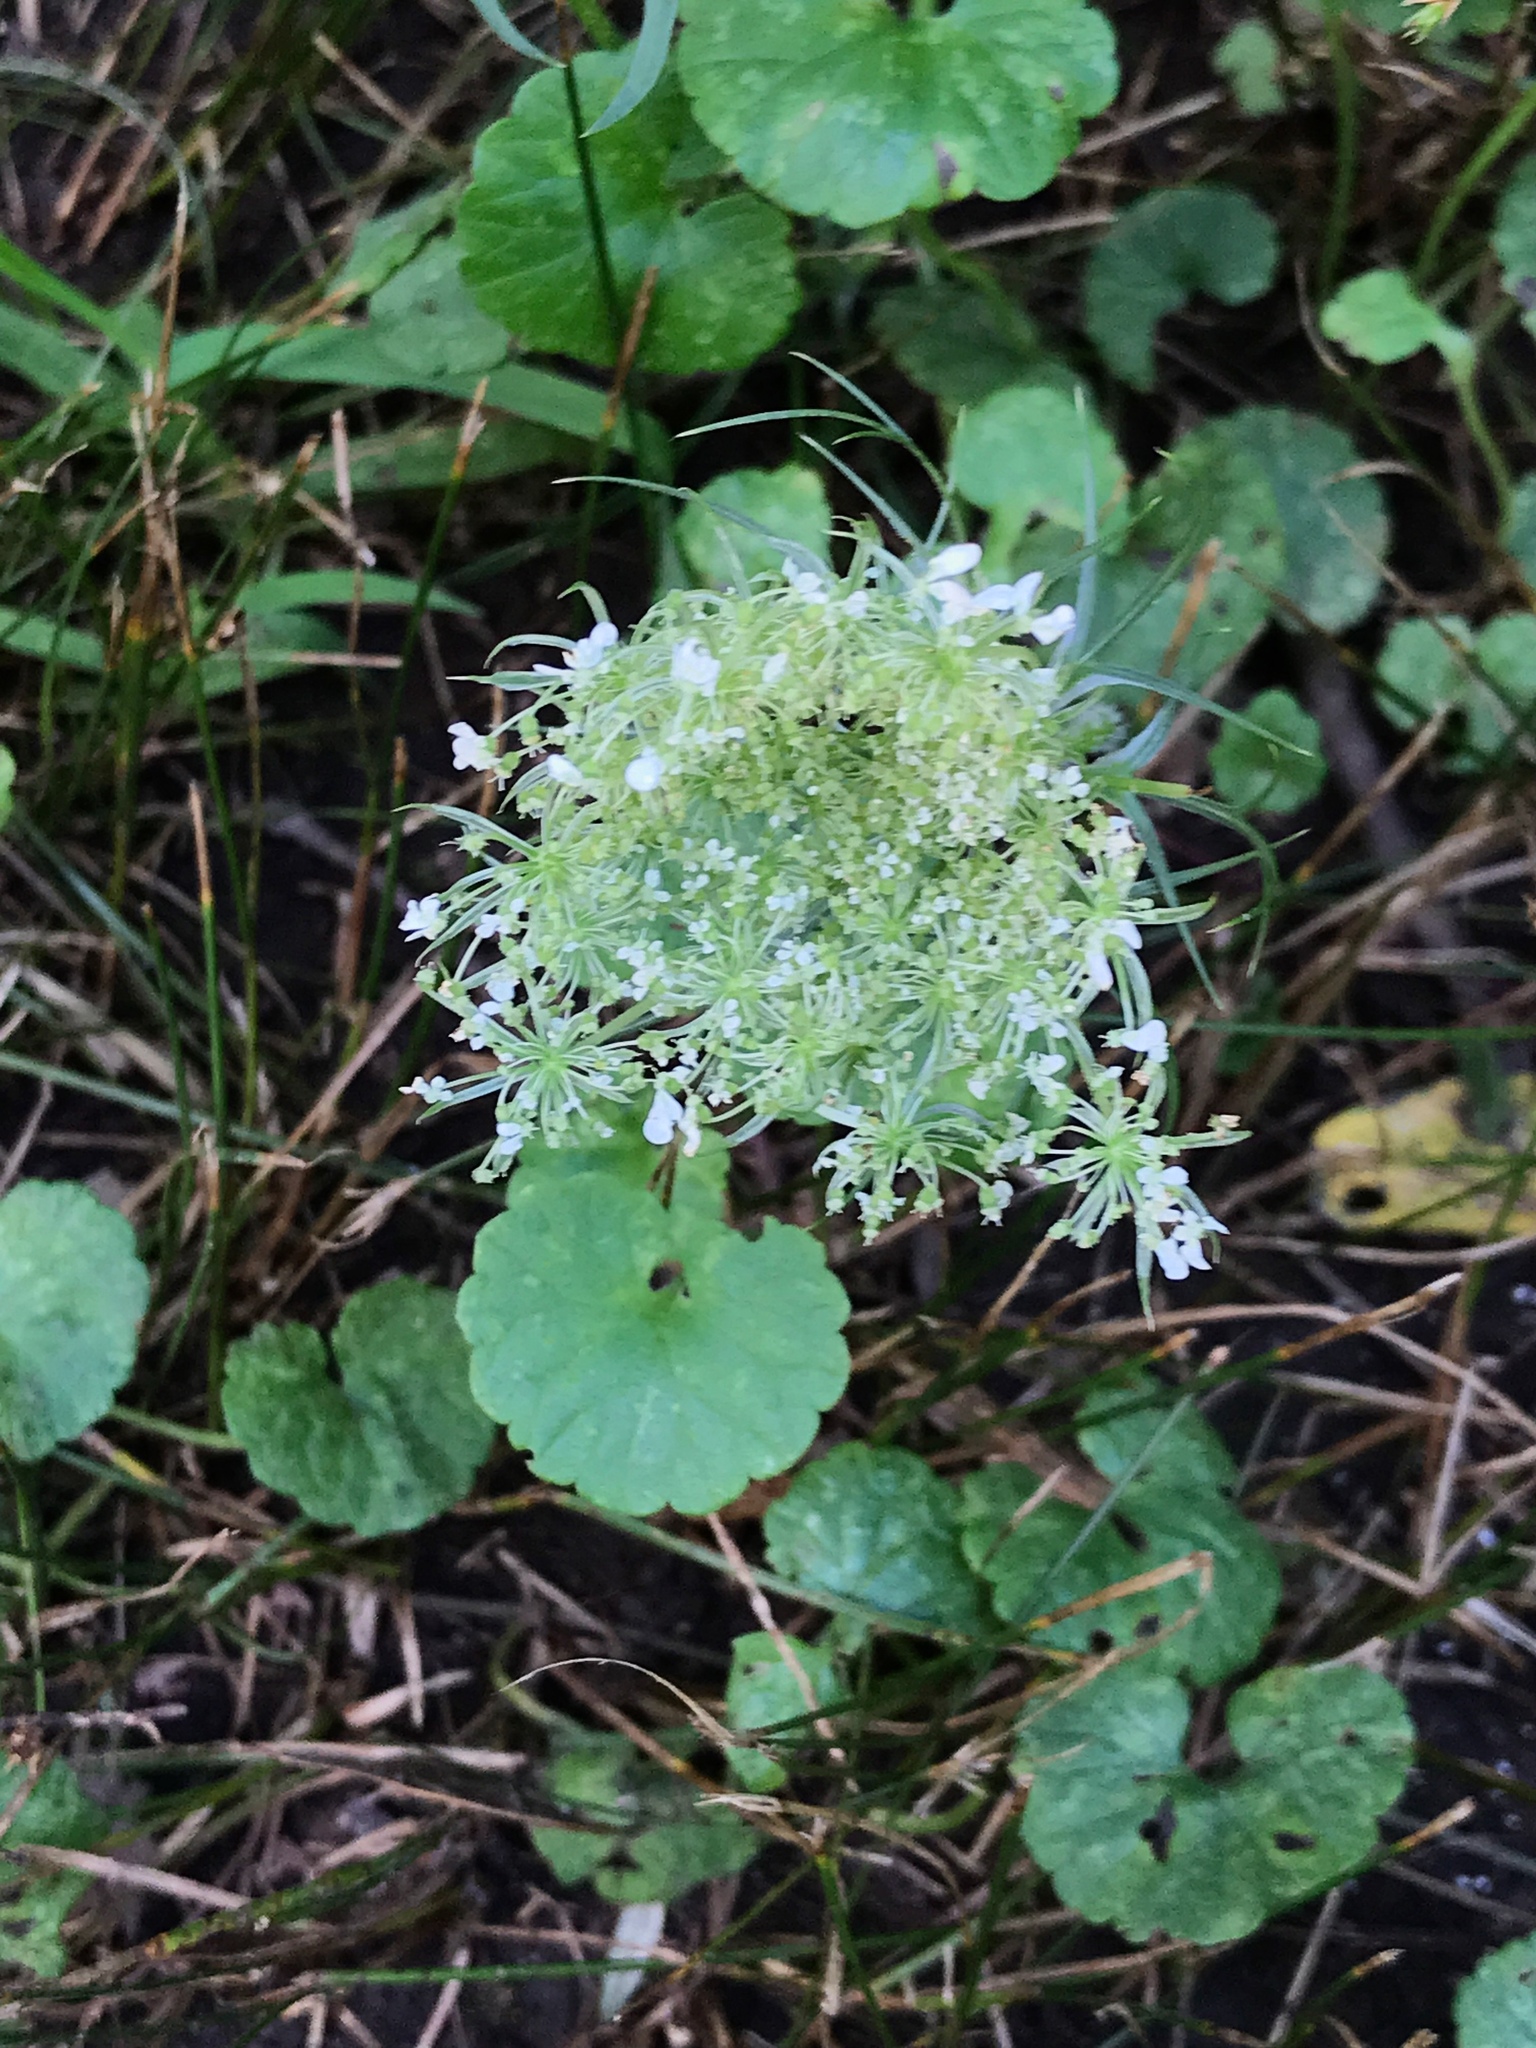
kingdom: Plantae
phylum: Tracheophyta
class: Magnoliopsida
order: Apiales
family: Apiaceae
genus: Daucus
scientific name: Daucus carota
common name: Wild carrot
